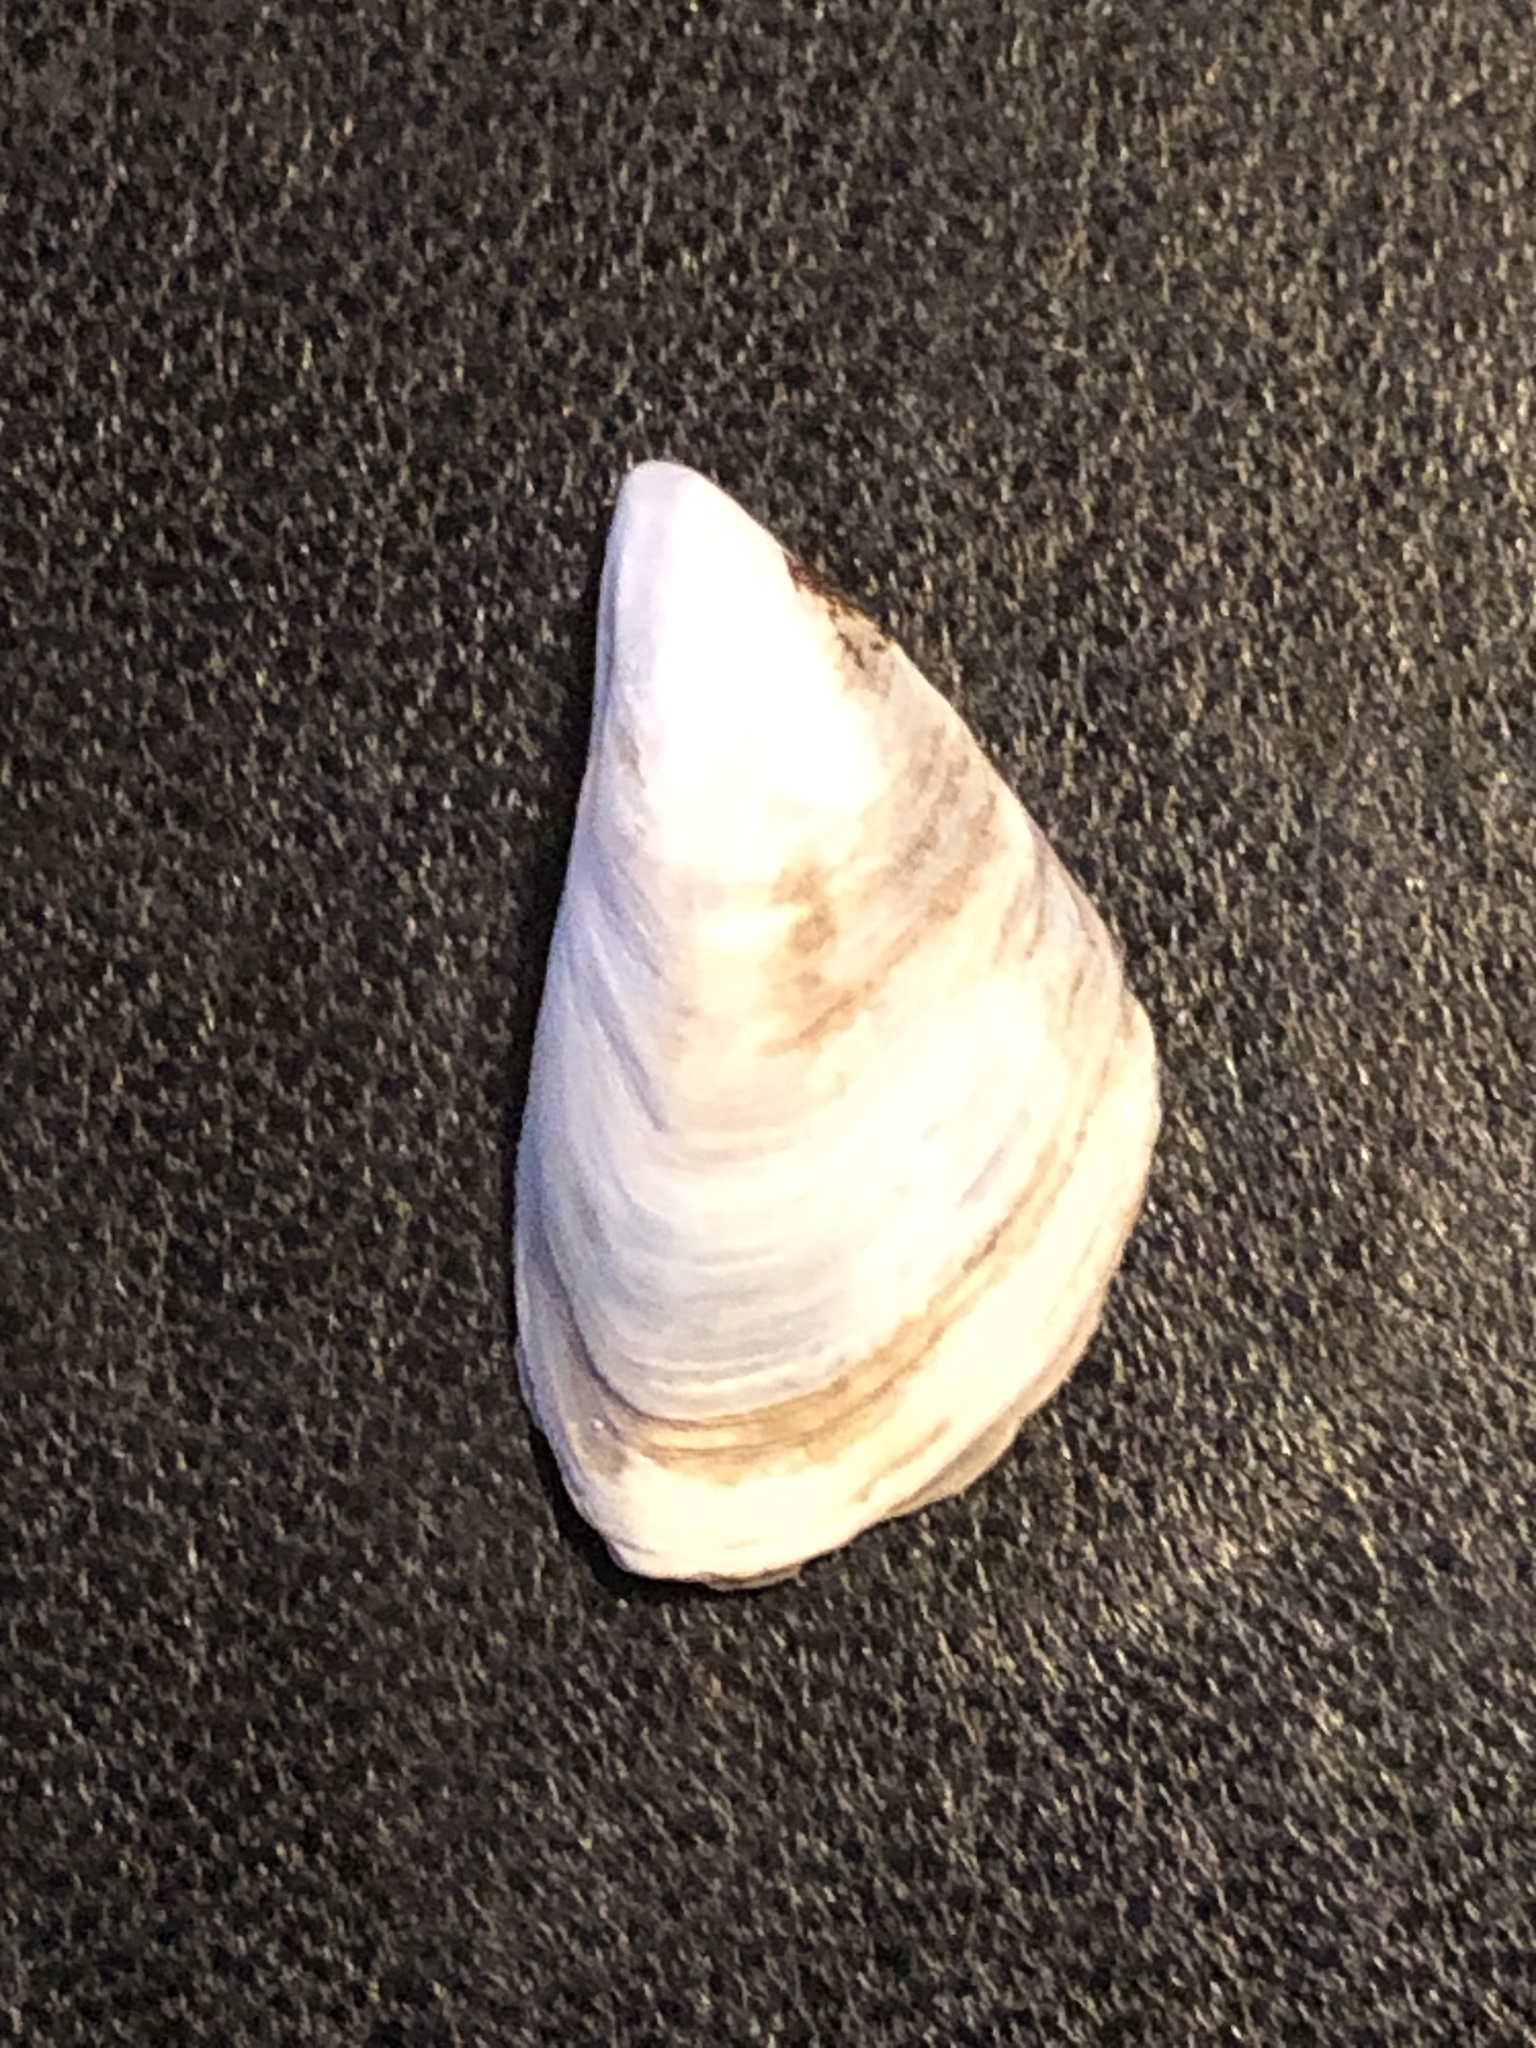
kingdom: Animalia
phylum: Mollusca
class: Bivalvia
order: Myida
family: Dreissenidae
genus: Dreissena
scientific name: Dreissena bugensis
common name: Quagga mussel
